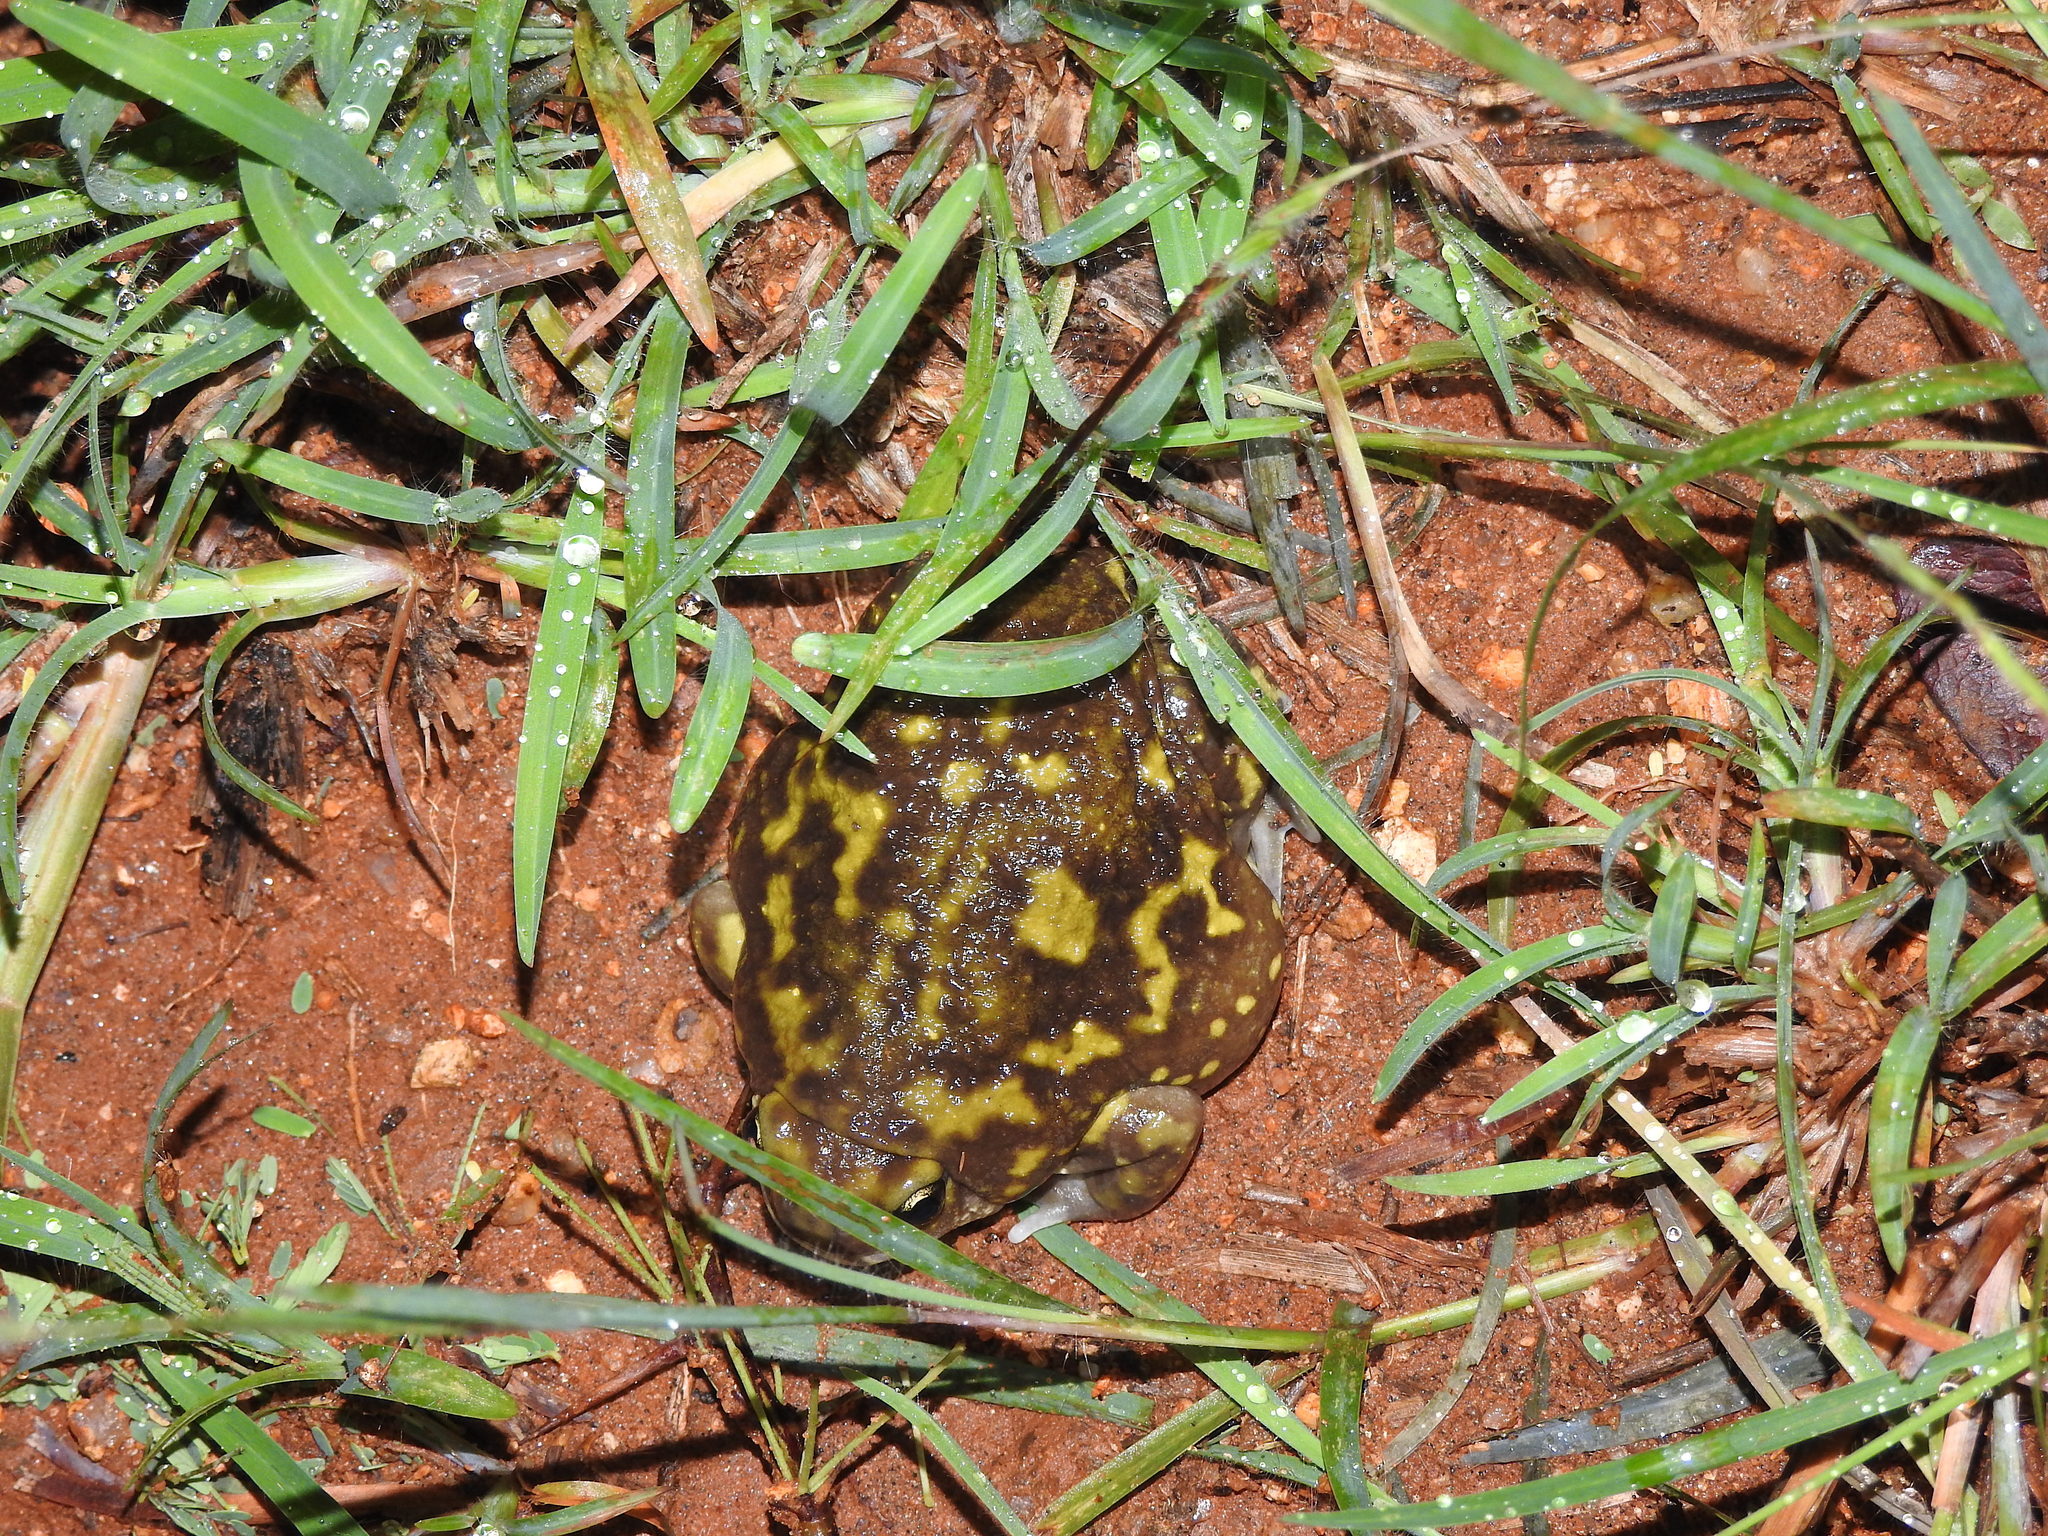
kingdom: Animalia
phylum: Chordata
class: Amphibia
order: Anura
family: Microhylidae
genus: Uperodon
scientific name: Uperodon systoma
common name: Balloon frog
